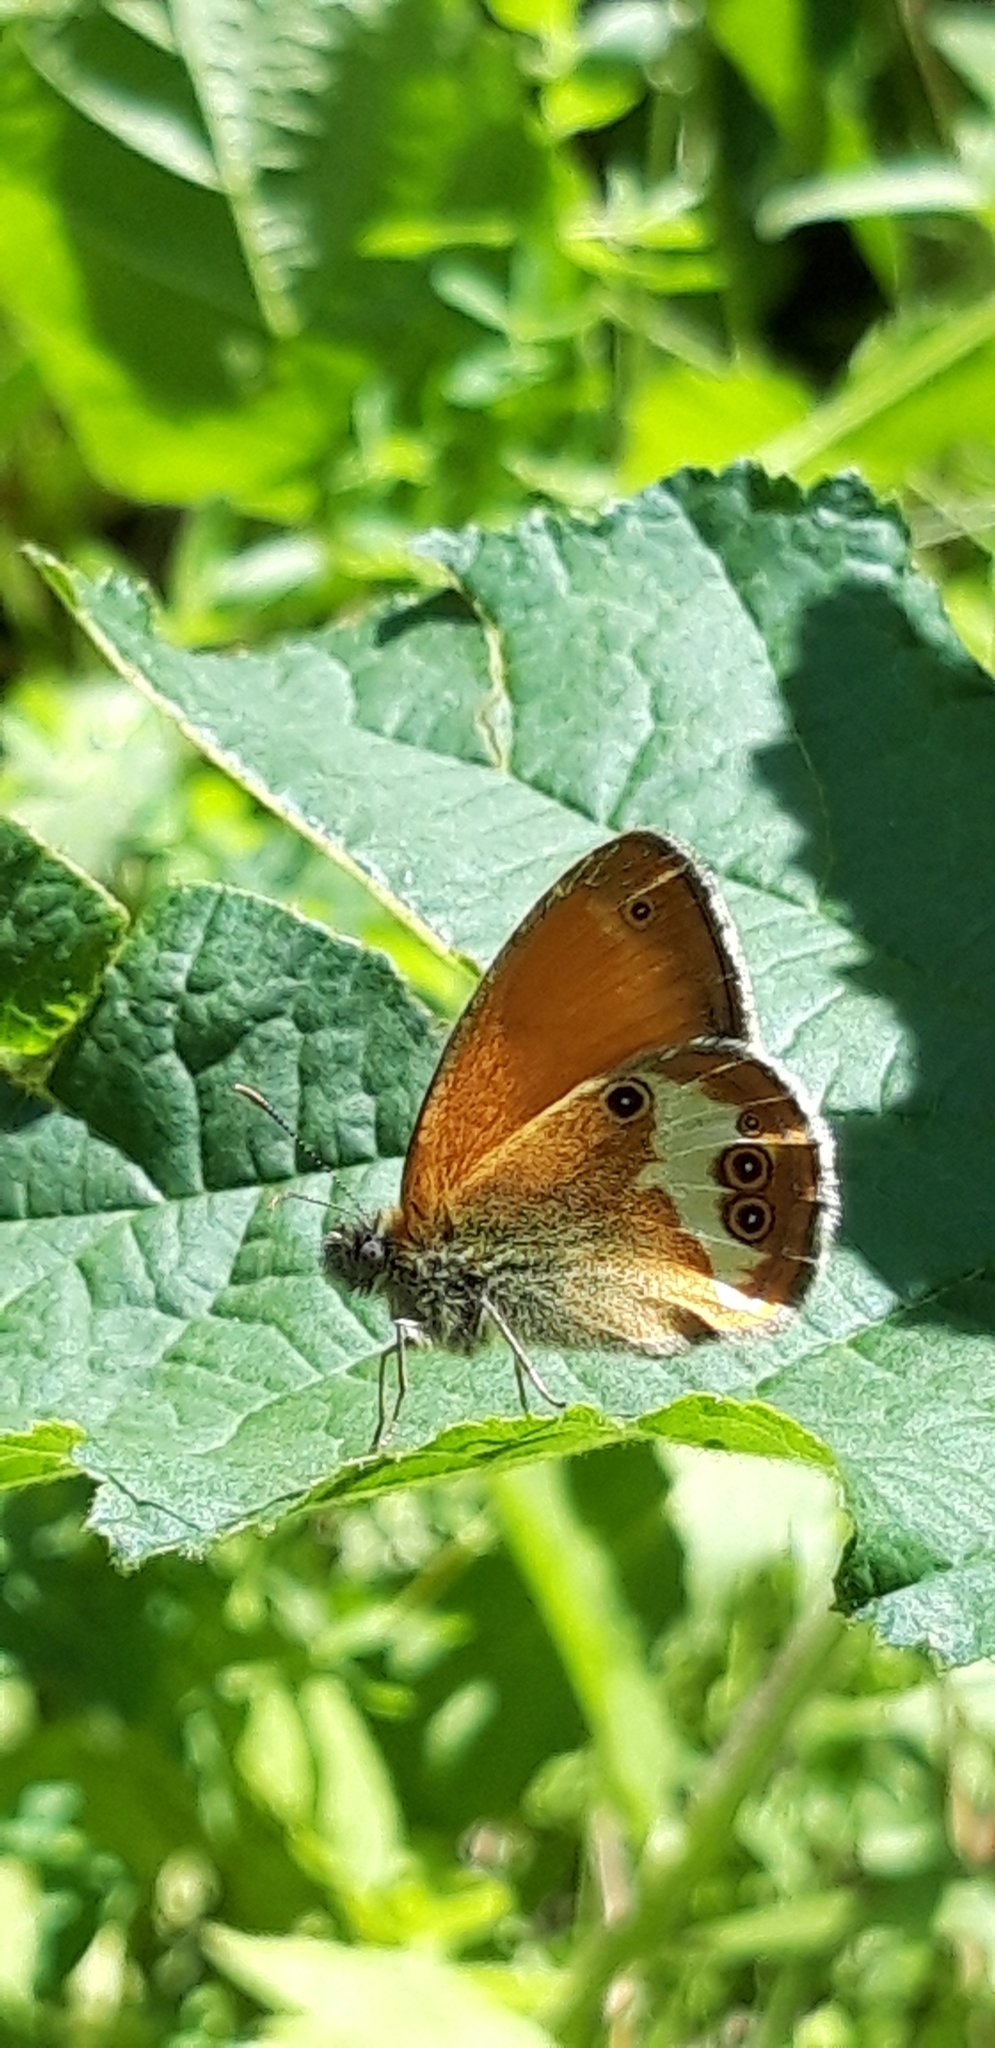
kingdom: Animalia
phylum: Arthropoda
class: Insecta
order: Lepidoptera
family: Nymphalidae
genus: Coenonympha
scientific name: Coenonympha arcania
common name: Pearly heath
